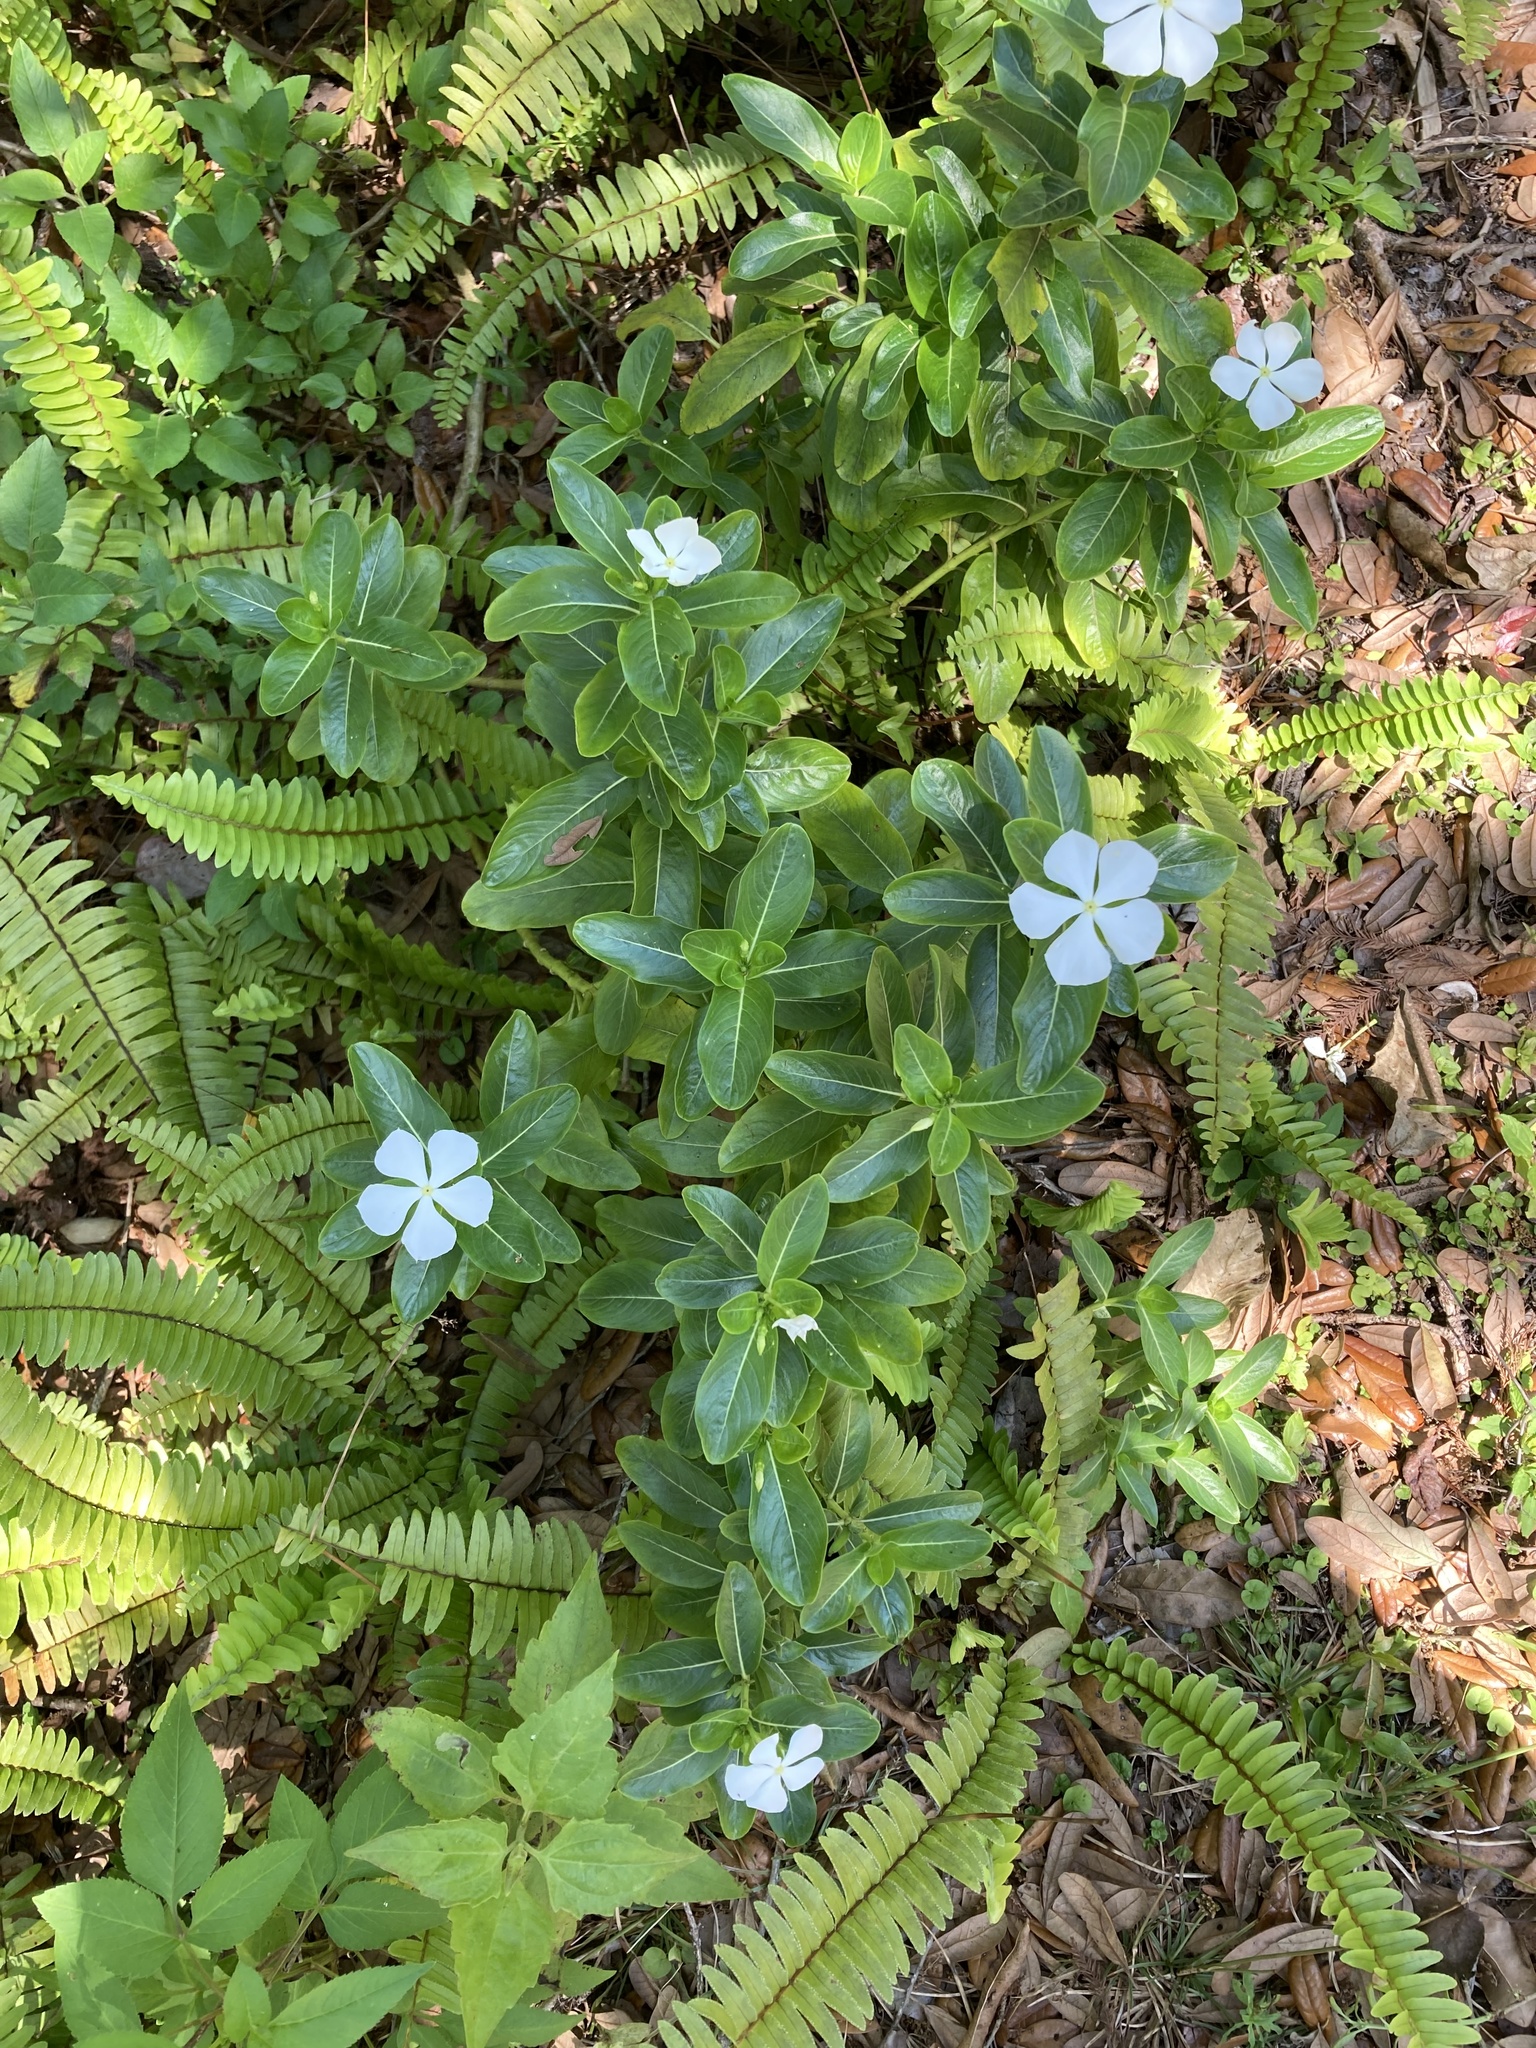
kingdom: Plantae
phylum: Tracheophyta
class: Magnoliopsida
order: Gentianales
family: Apocynaceae
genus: Catharanthus
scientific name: Catharanthus roseus
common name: Madagascar periwinkle
